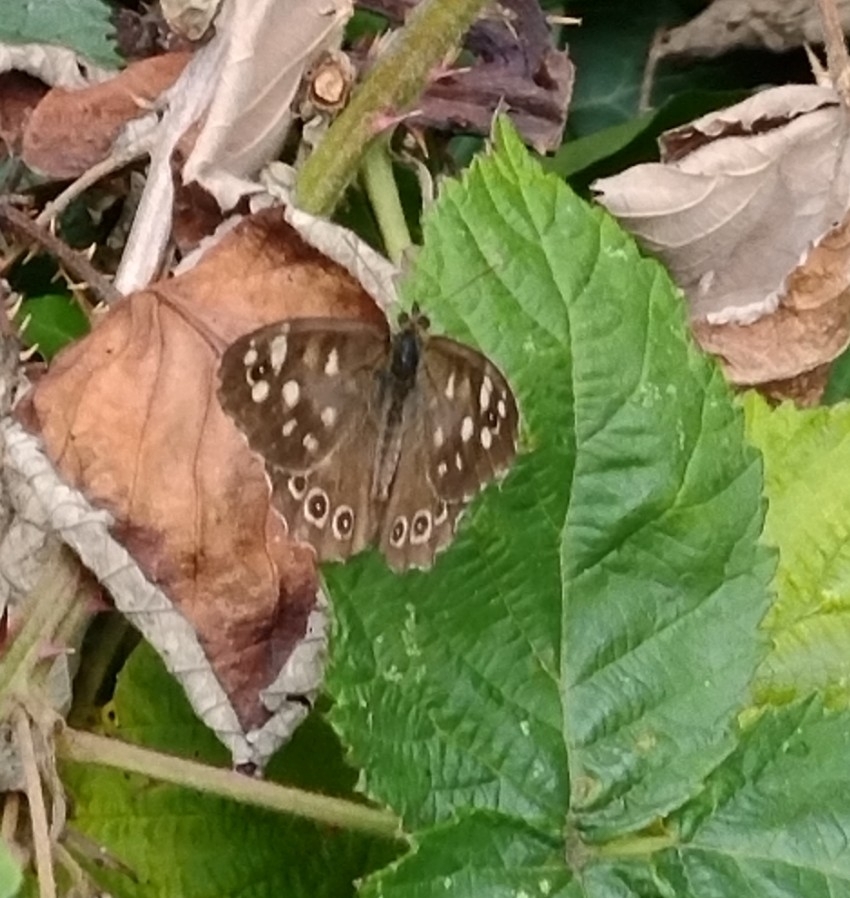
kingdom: Animalia
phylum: Arthropoda
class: Insecta
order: Lepidoptera
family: Nymphalidae
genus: Pararge
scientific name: Pararge aegeria
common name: Speckled wood
